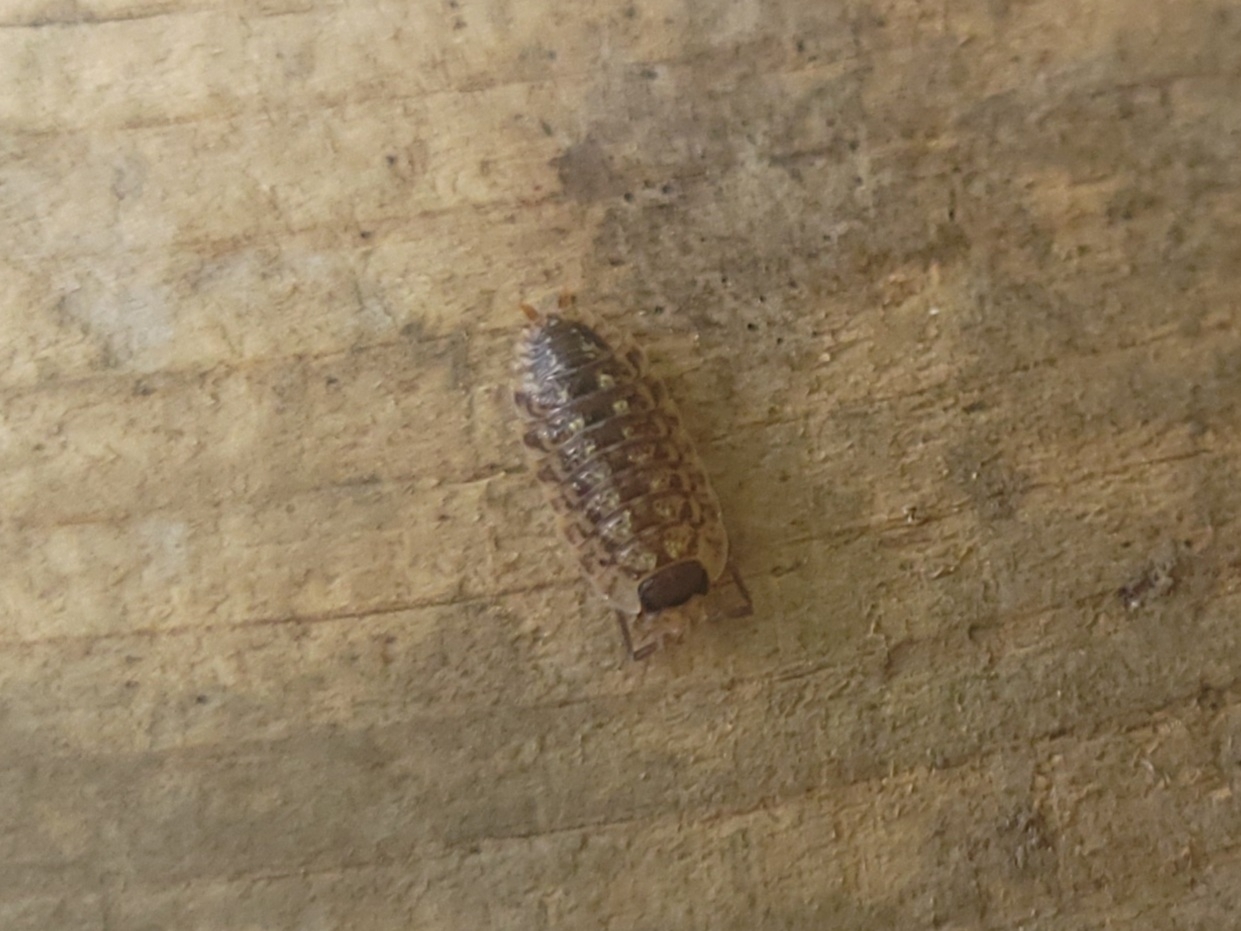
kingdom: Animalia
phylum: Arthropoda
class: Malacostraca
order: Isopoda
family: Porcellionidae
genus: Porcellio
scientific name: Porcellio spinicornis
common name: Painted woodlouse
